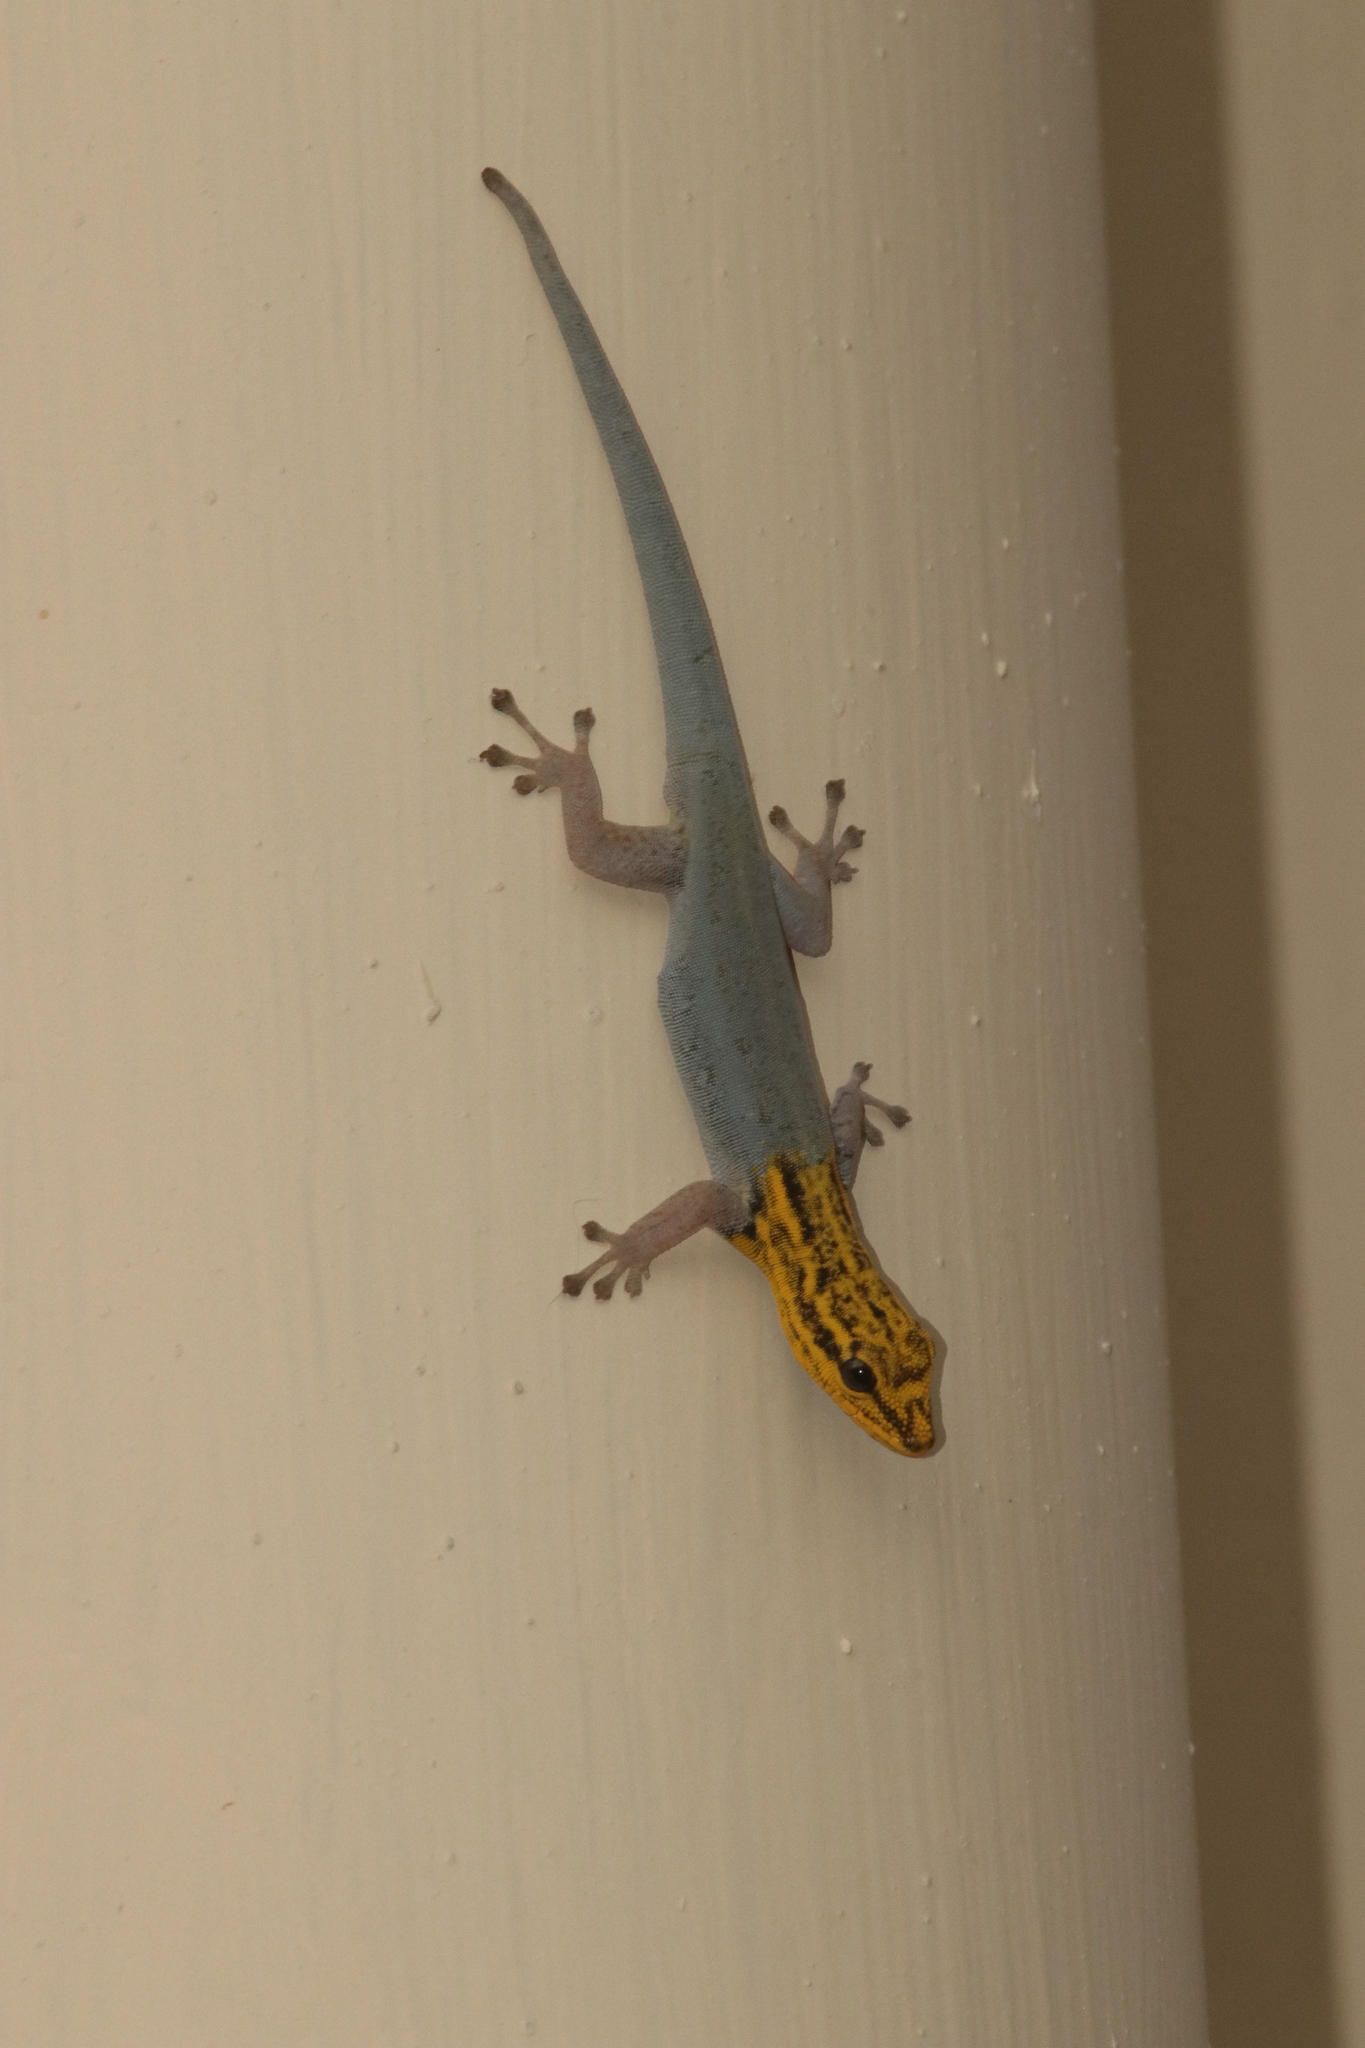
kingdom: Animalia
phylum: Chordata
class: Squamata
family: Gekkonidae
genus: Lygodactylus
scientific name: Lygodactylus picturatus
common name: Painted dwarf gecko
